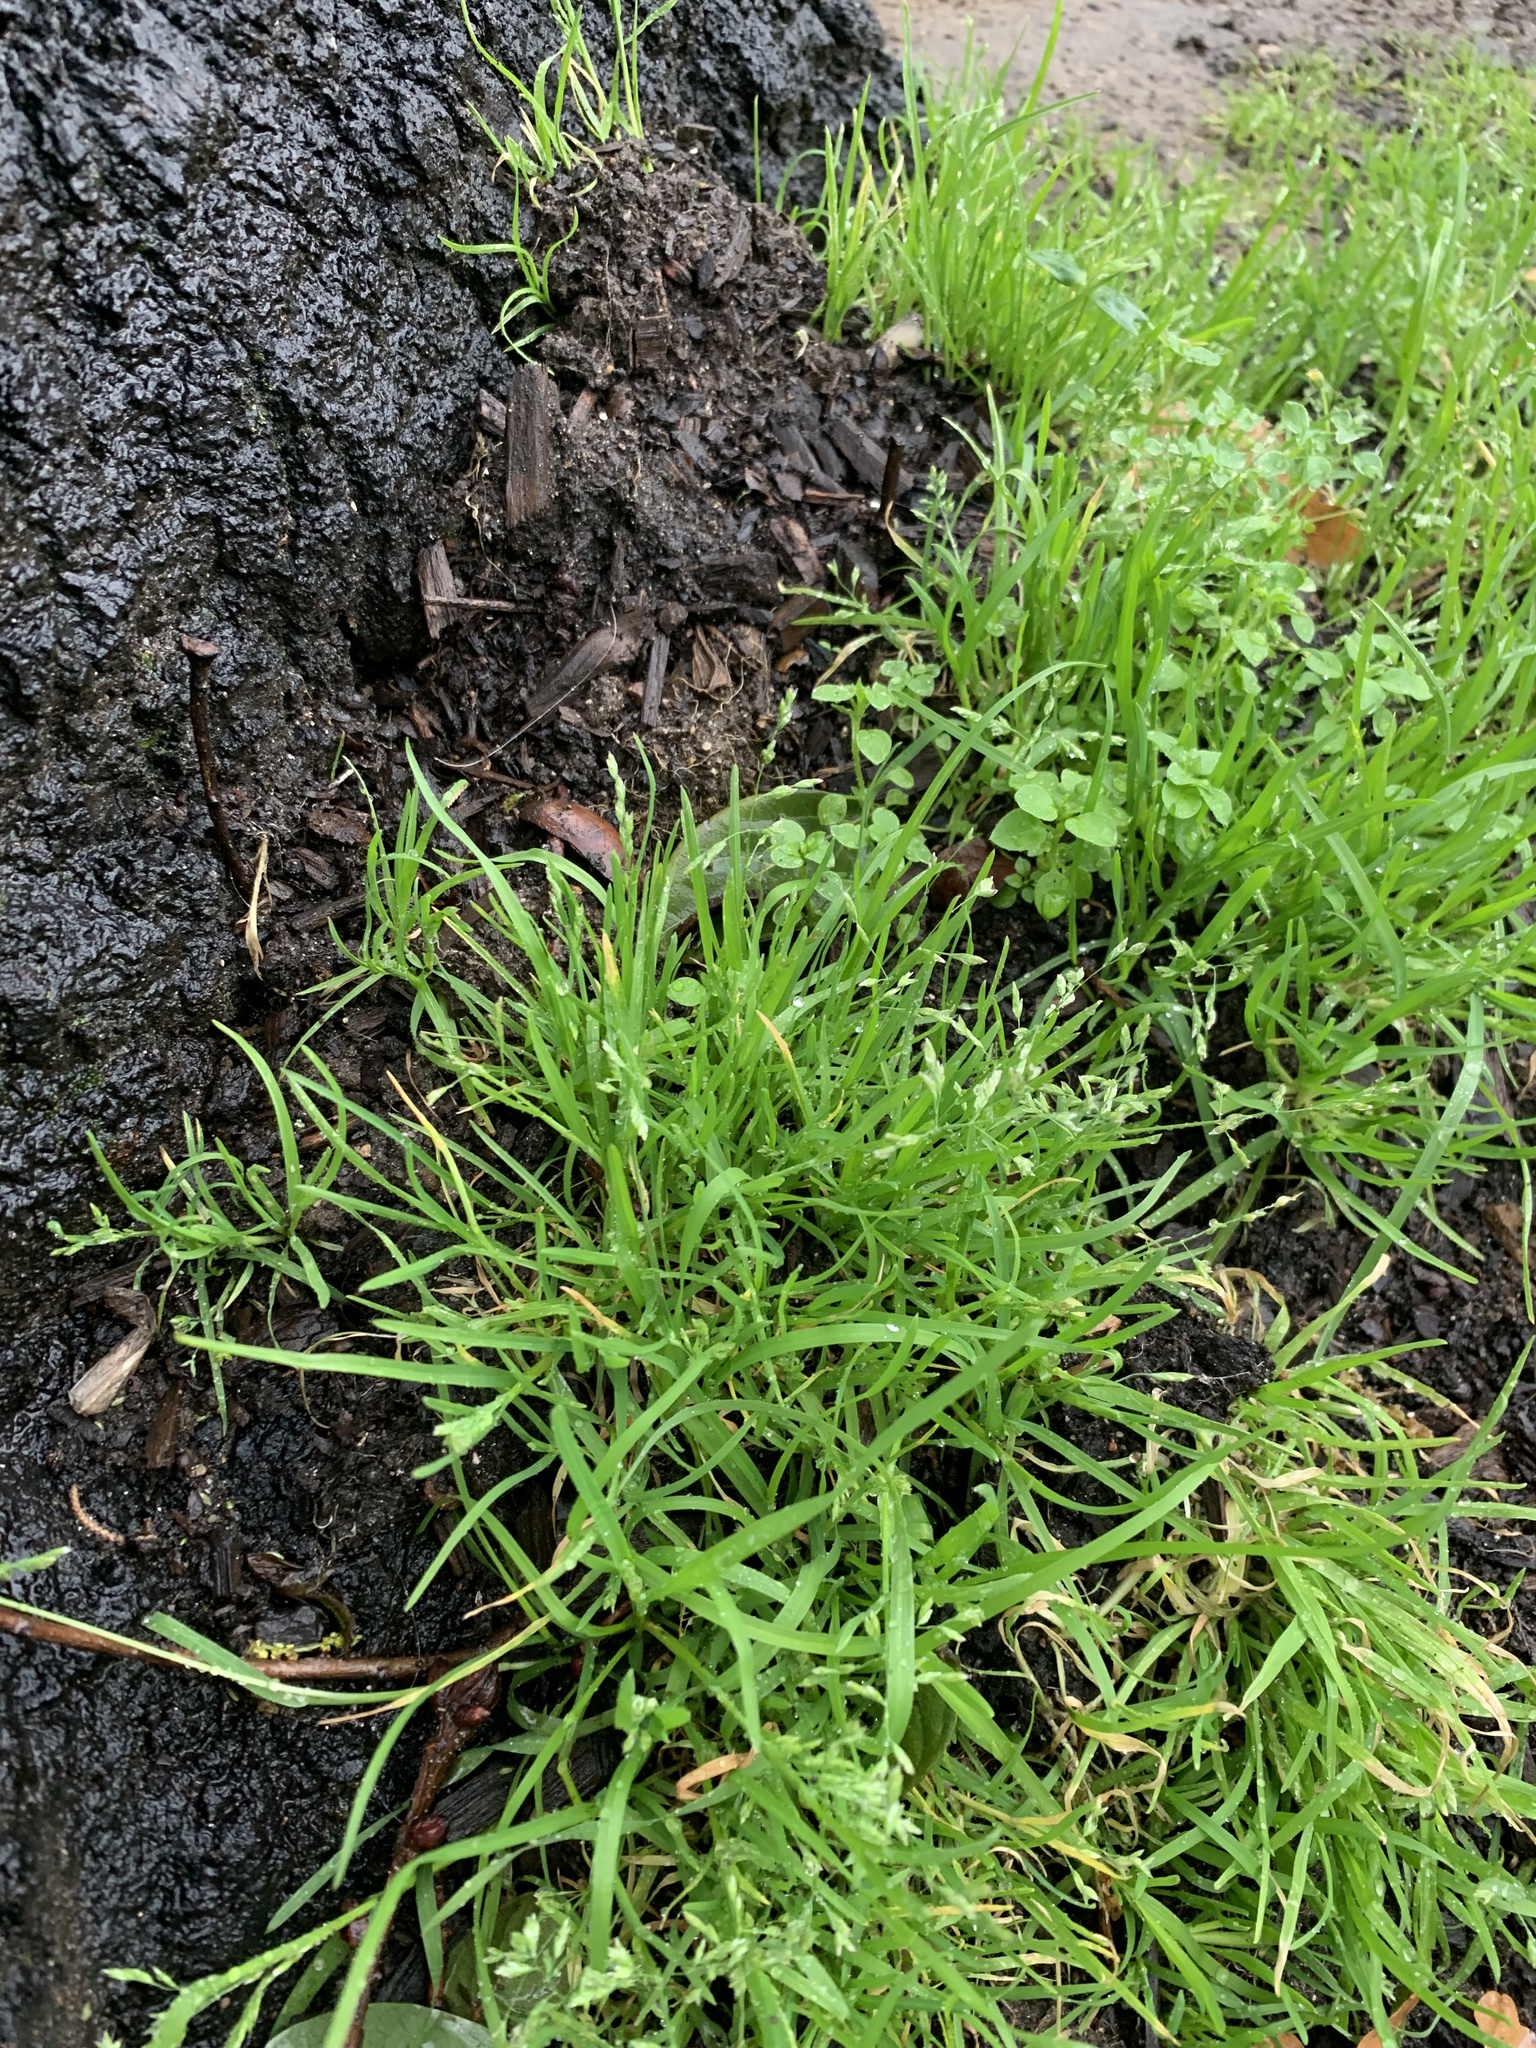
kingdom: Plantae
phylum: Tracheophyta
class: Liliopsida
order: Poales
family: Poaceae
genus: Poa
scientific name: Poa annua
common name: Annual bluegrass
